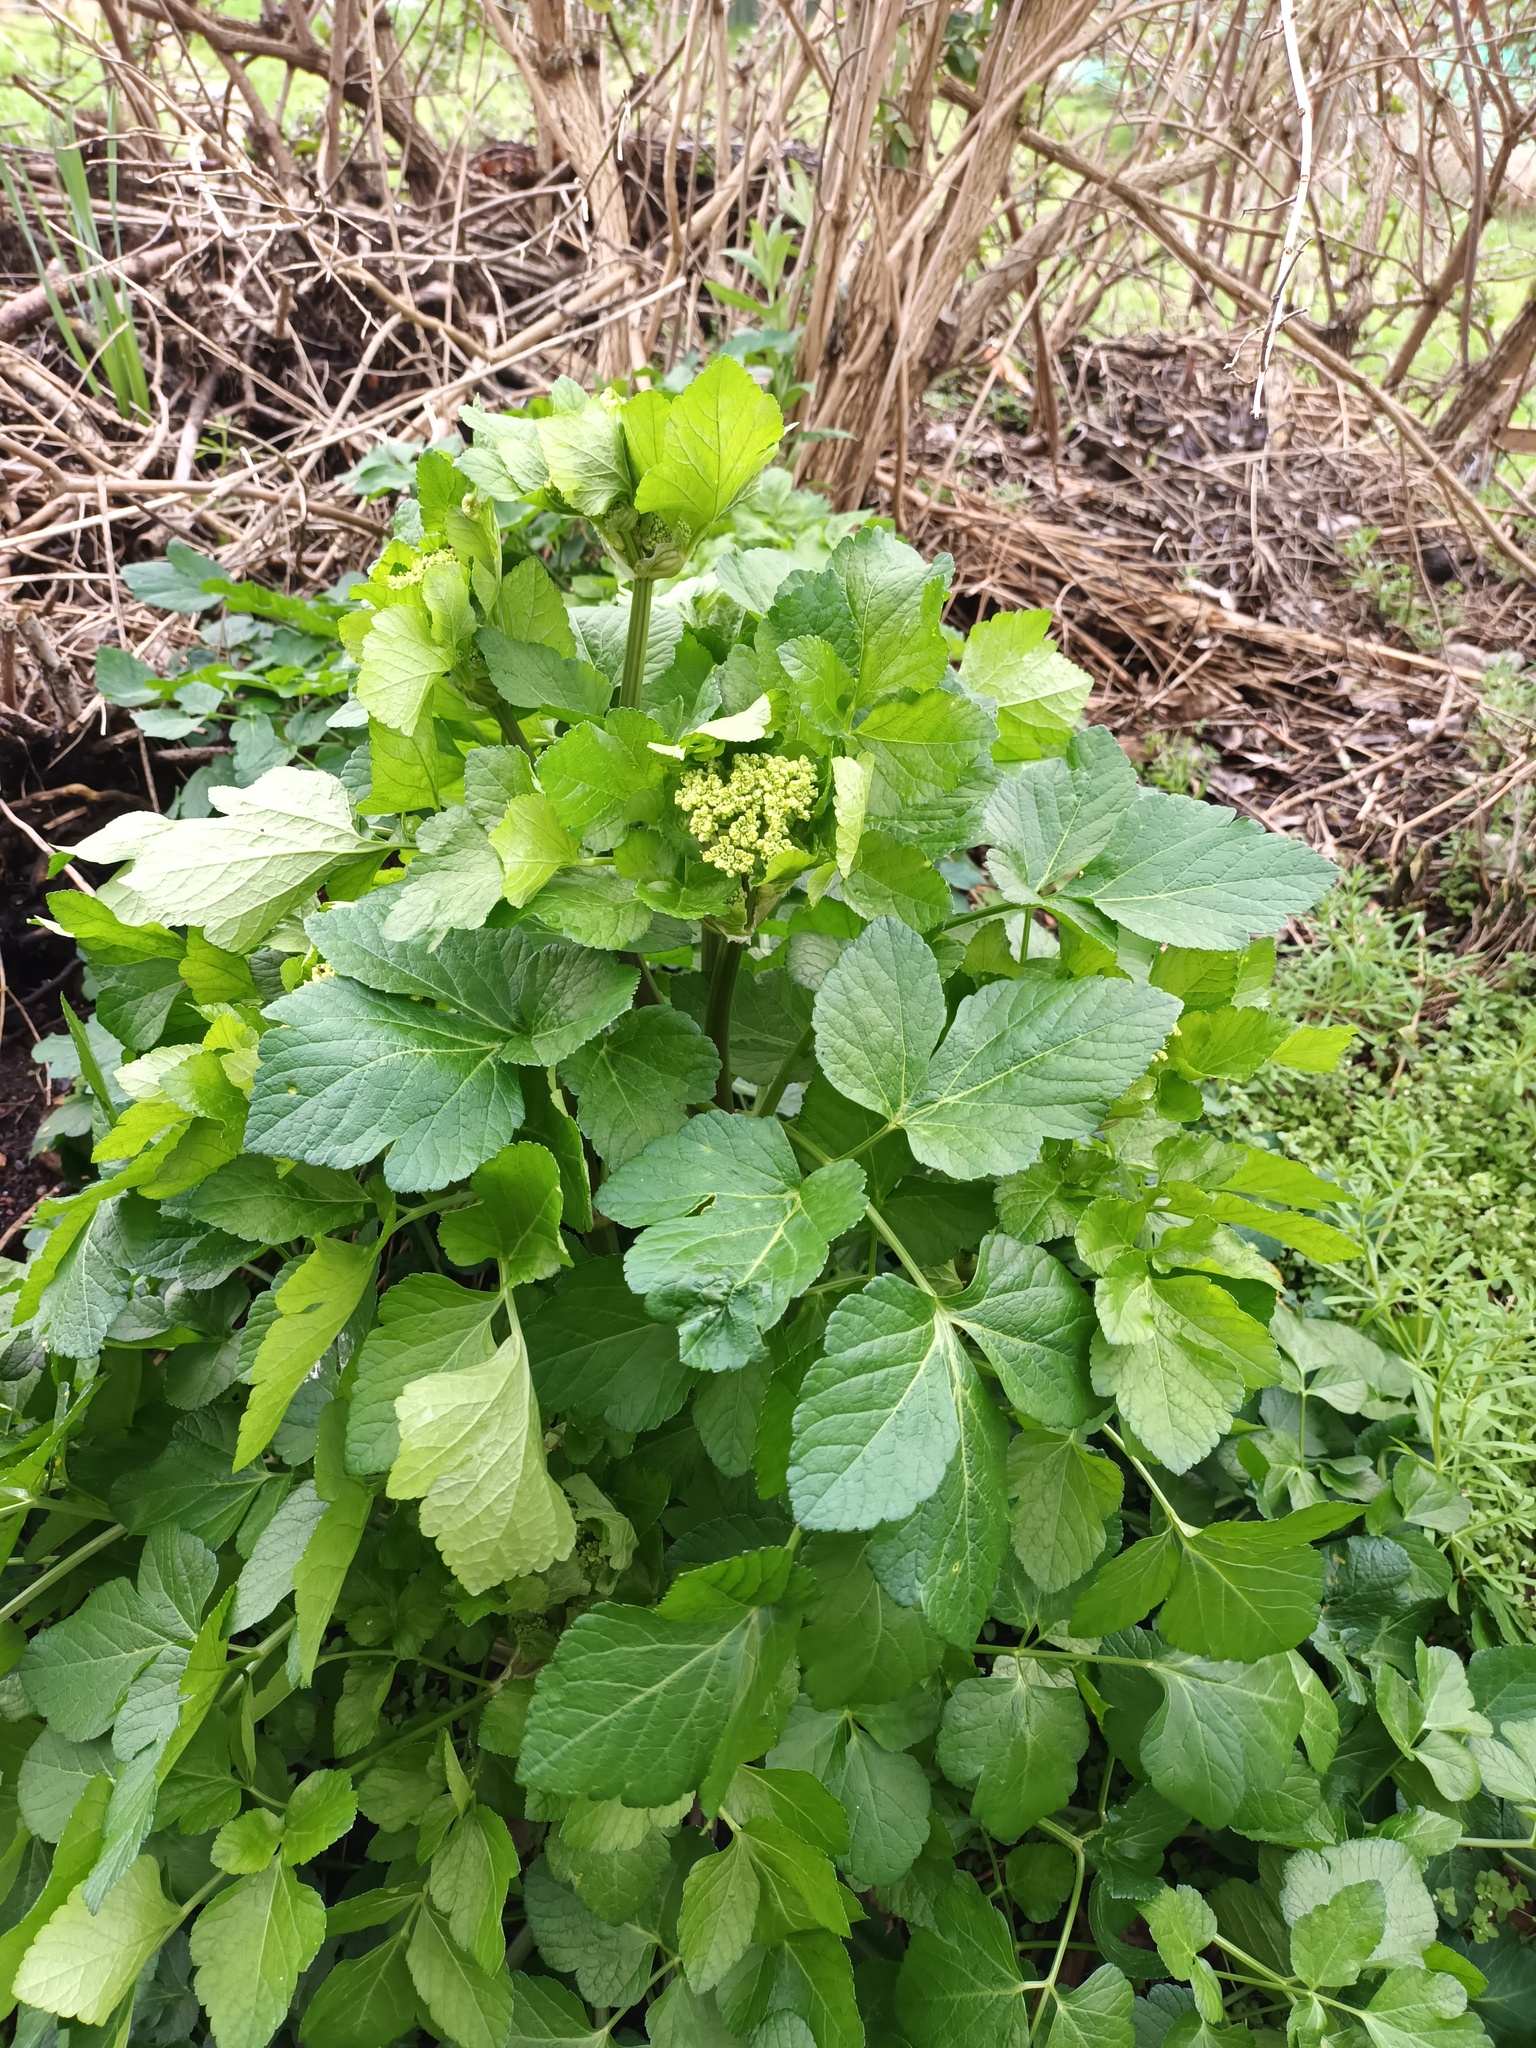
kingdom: Plantae
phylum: Tracheophyta
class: Magnoliopsida
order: Apiales
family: Apiaceae
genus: Smyrnium
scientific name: Smyrnium olusatrum
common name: Alexanders
